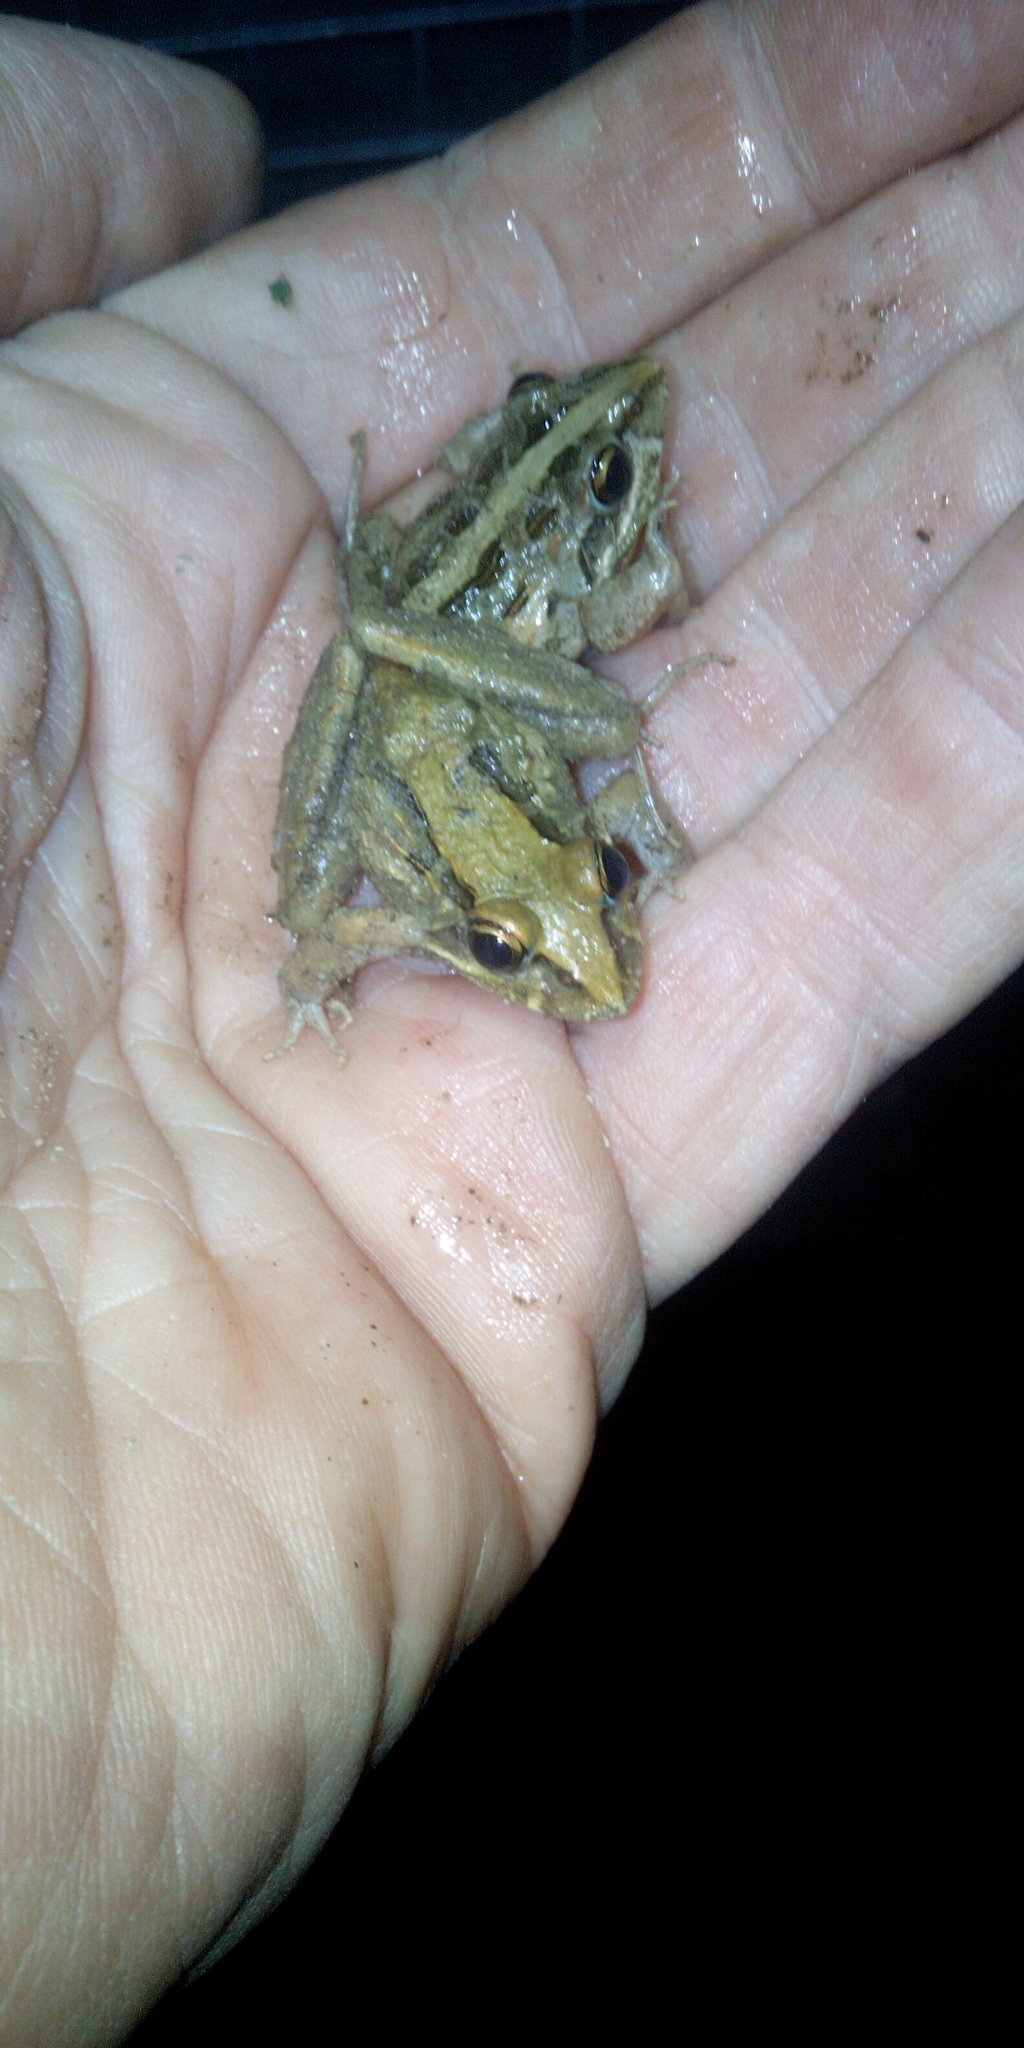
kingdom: Animalia
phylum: Chordata
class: Amphibia
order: Anura
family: Pyxicephalidae
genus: Strongylopus
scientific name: Strongylopus grayii
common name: Gray's stream frog
